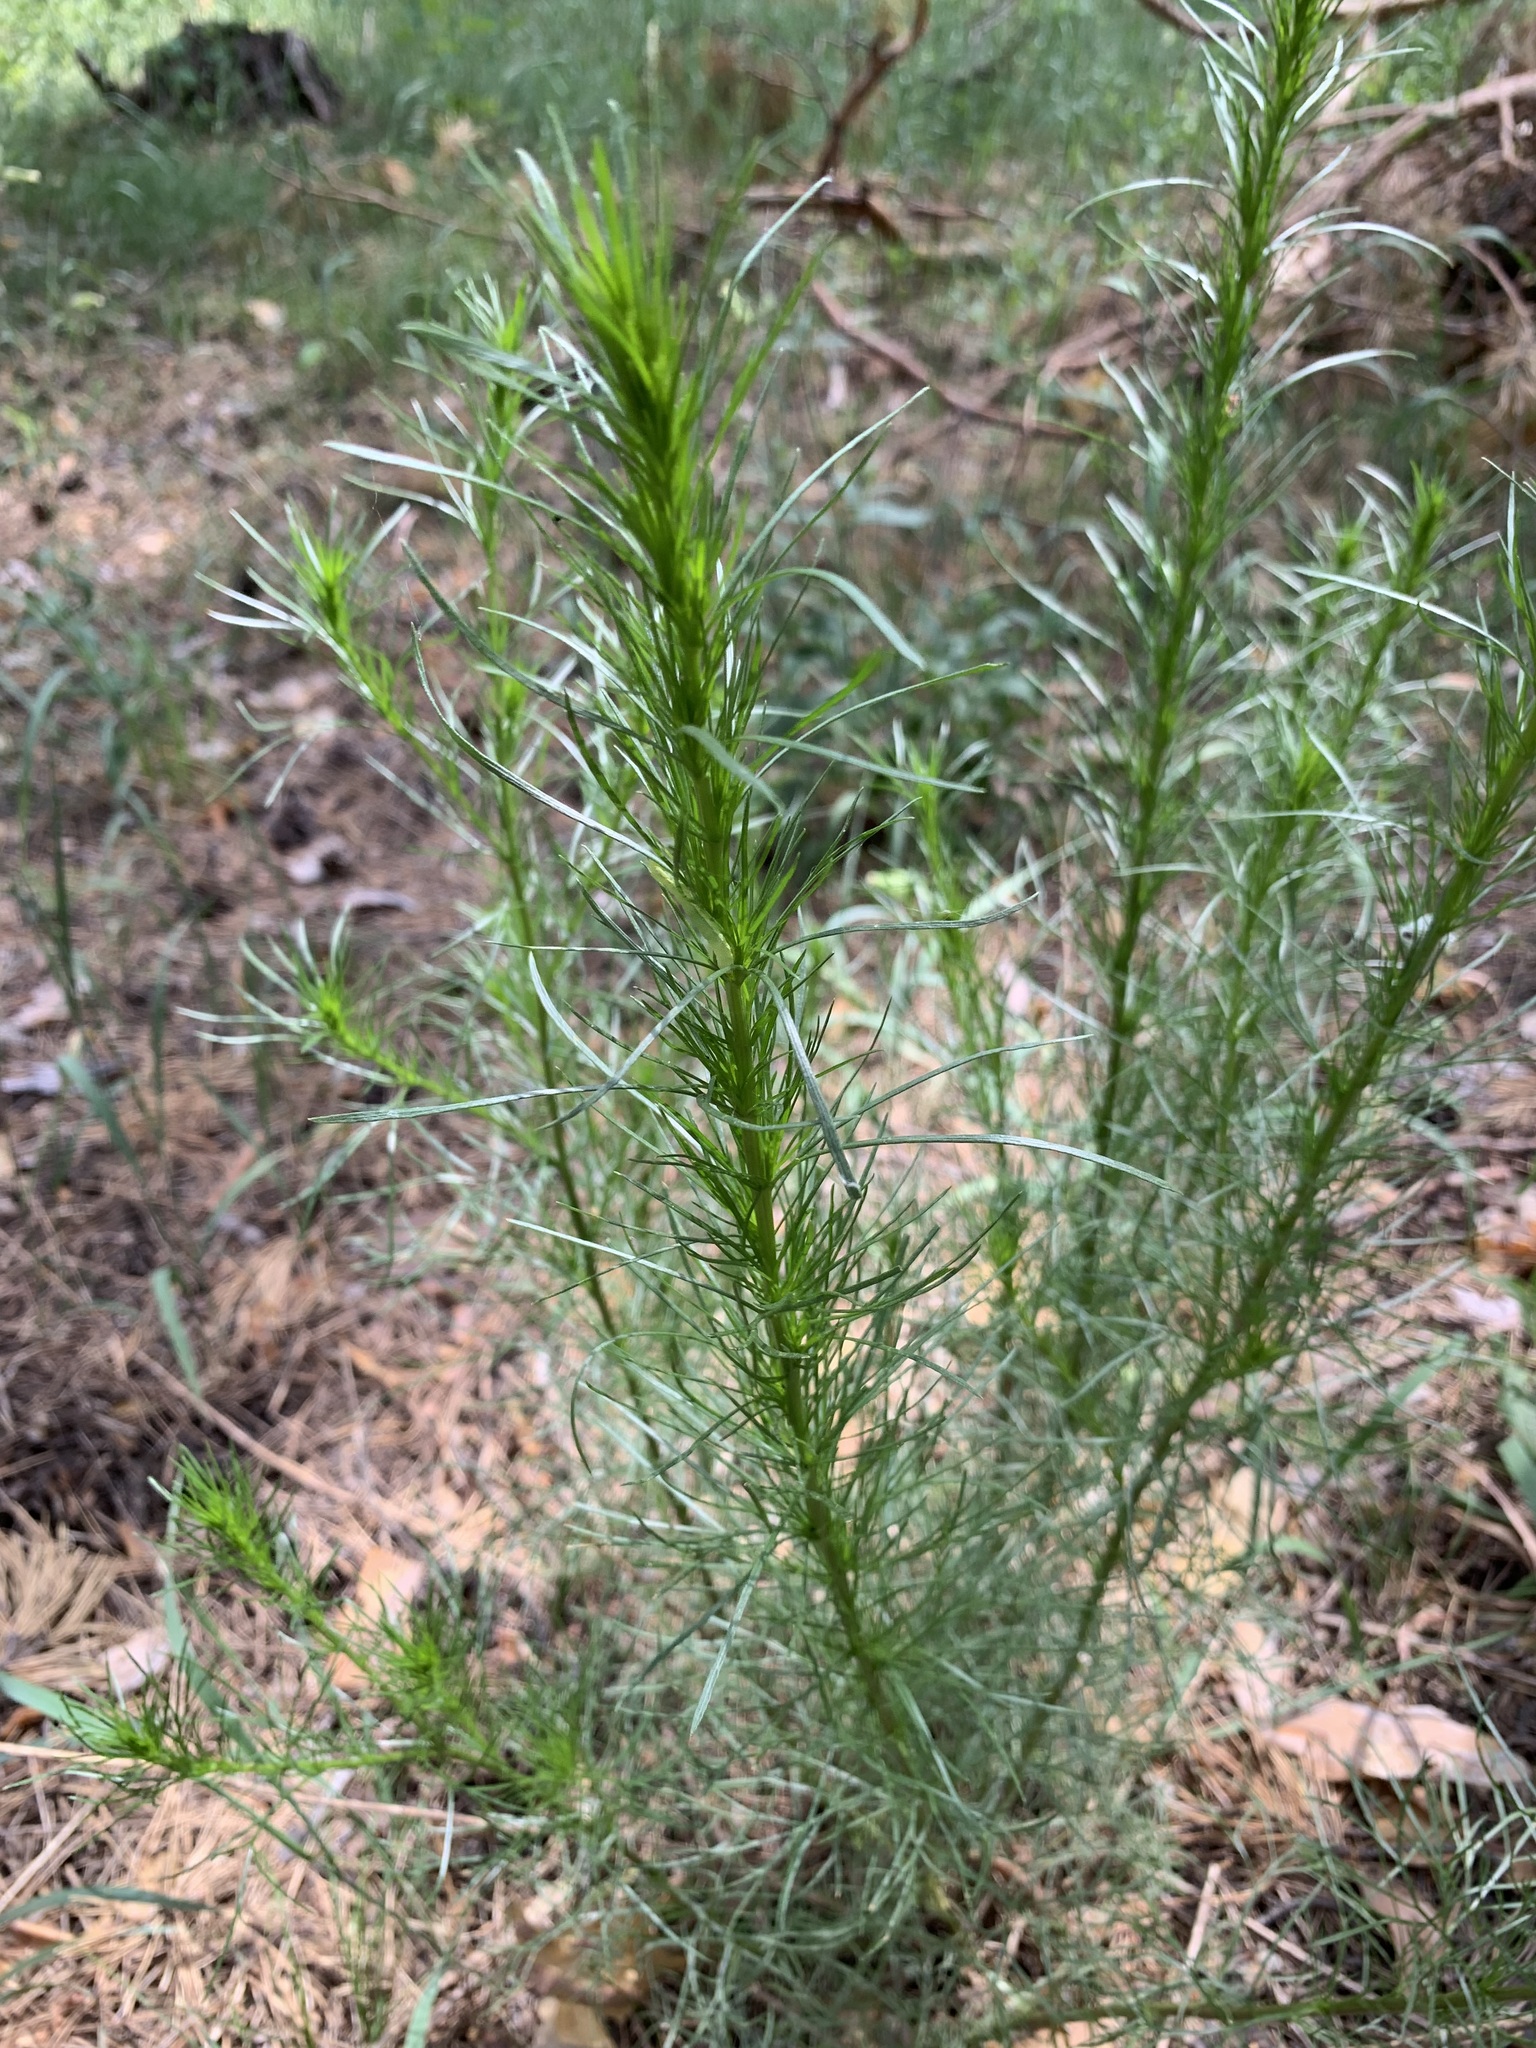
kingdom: Plantae
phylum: Tracheophyta
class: Magnoliopsida
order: Asterales
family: Asteraceae
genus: Artemisia
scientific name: Artemisia campestris
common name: Field wormwood
